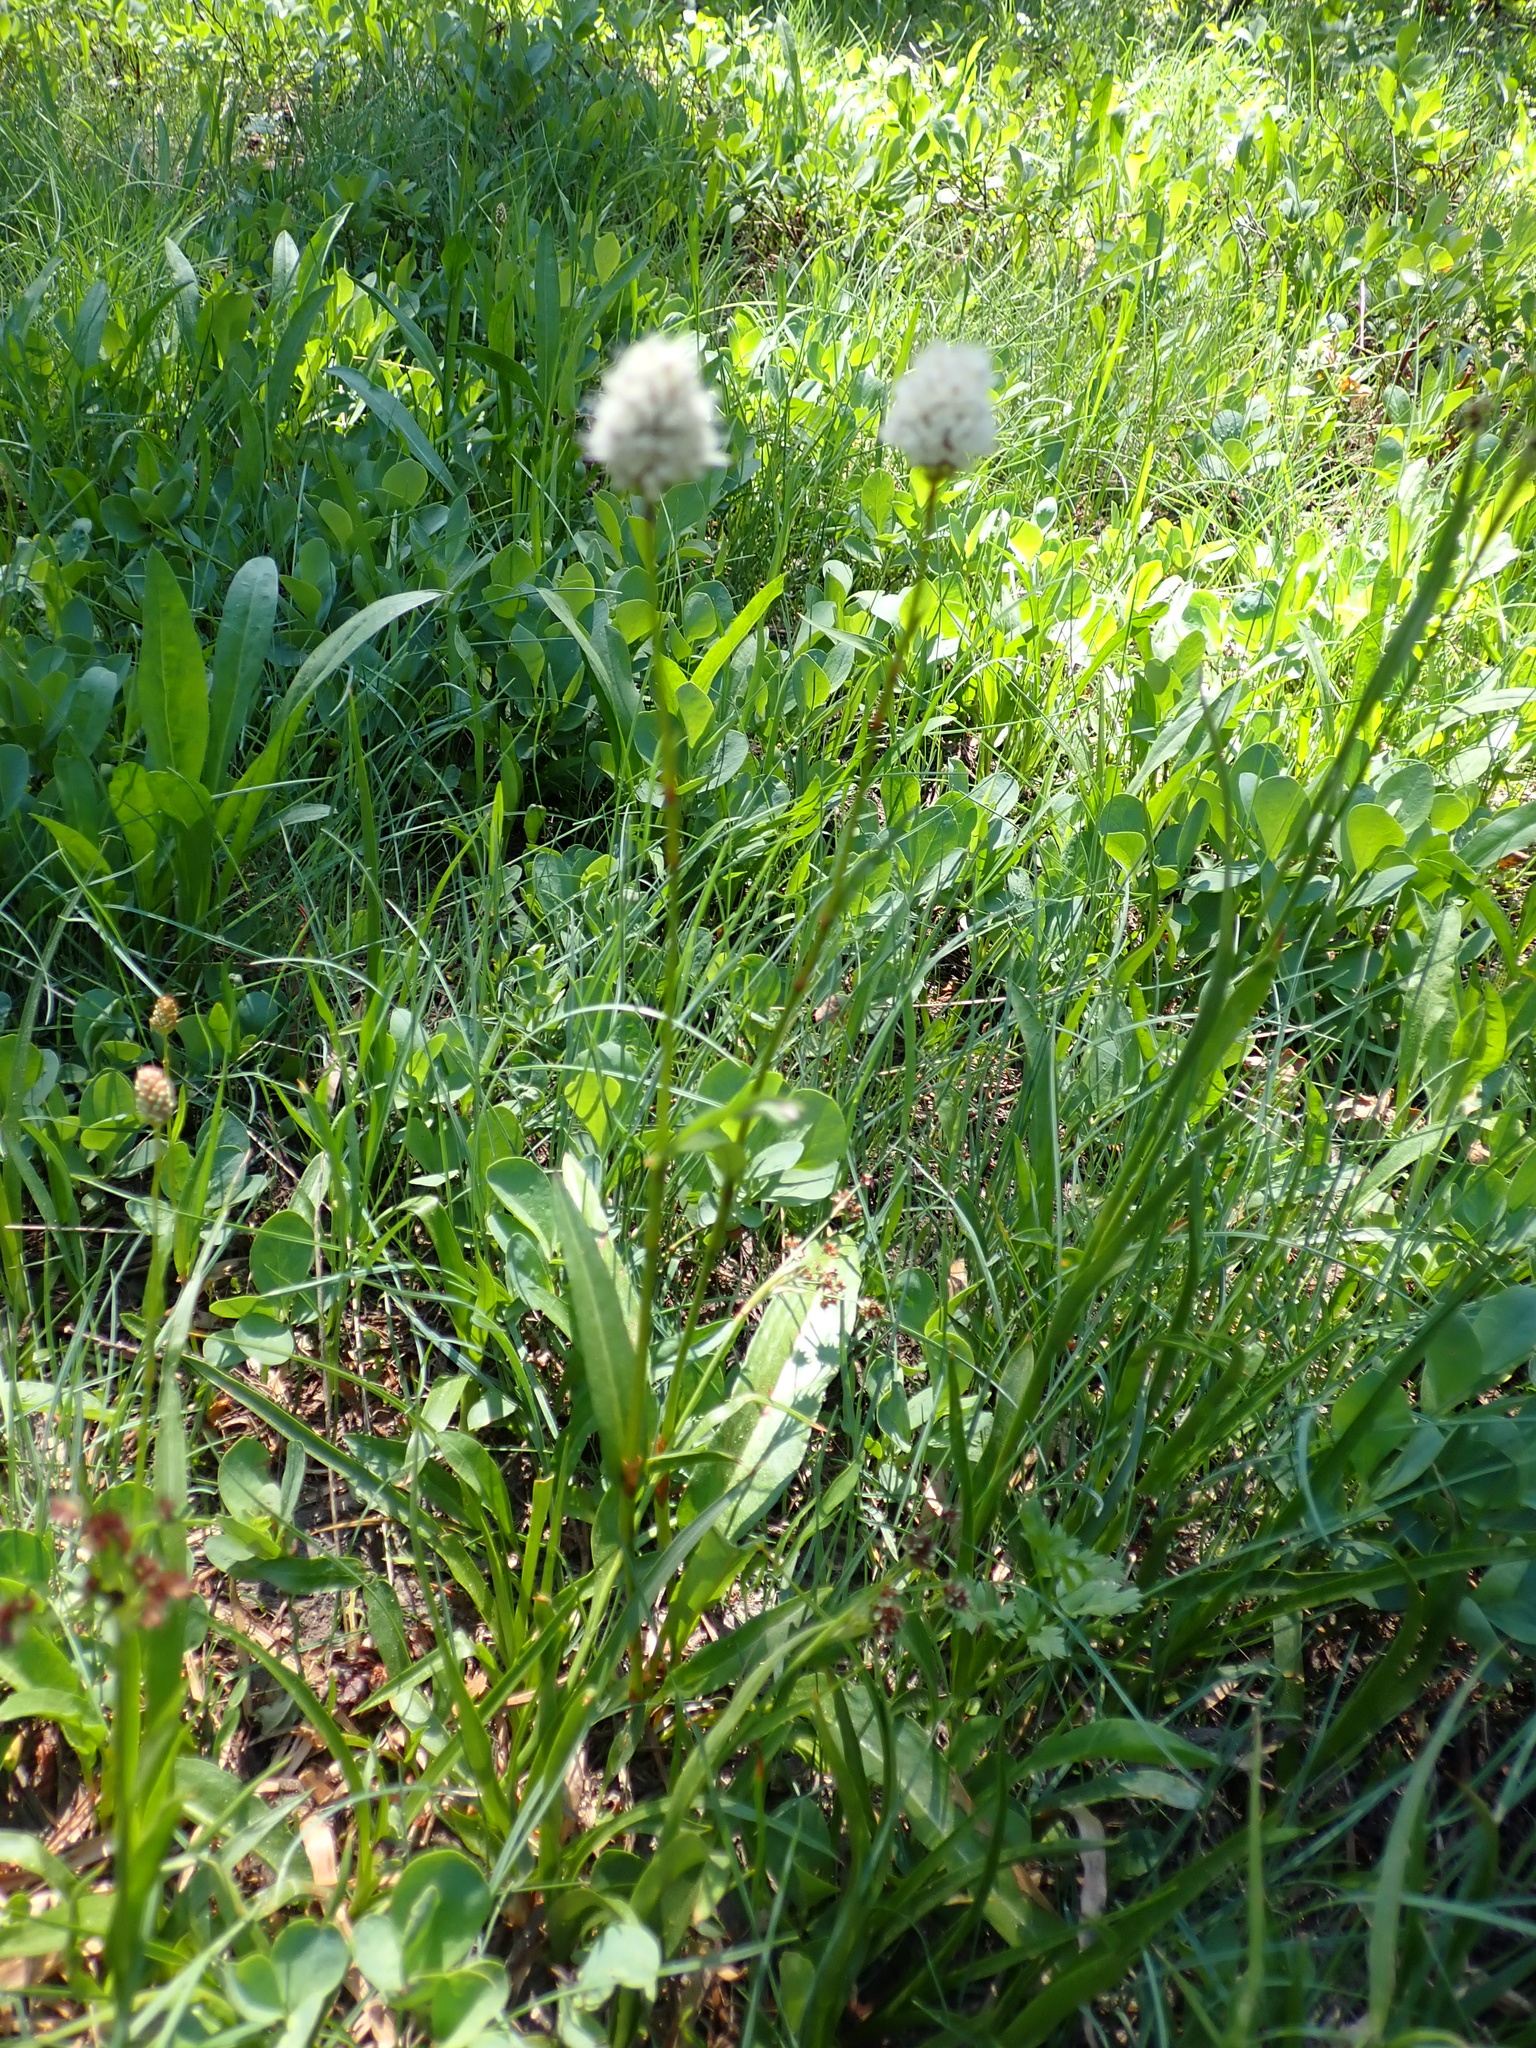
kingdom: Plantae
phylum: Tracheophyta
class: Magnoliopsida
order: Caryophyllales
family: Polygonaceae
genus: Bistorta
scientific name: Bistorta bistortoides
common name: American bistort
